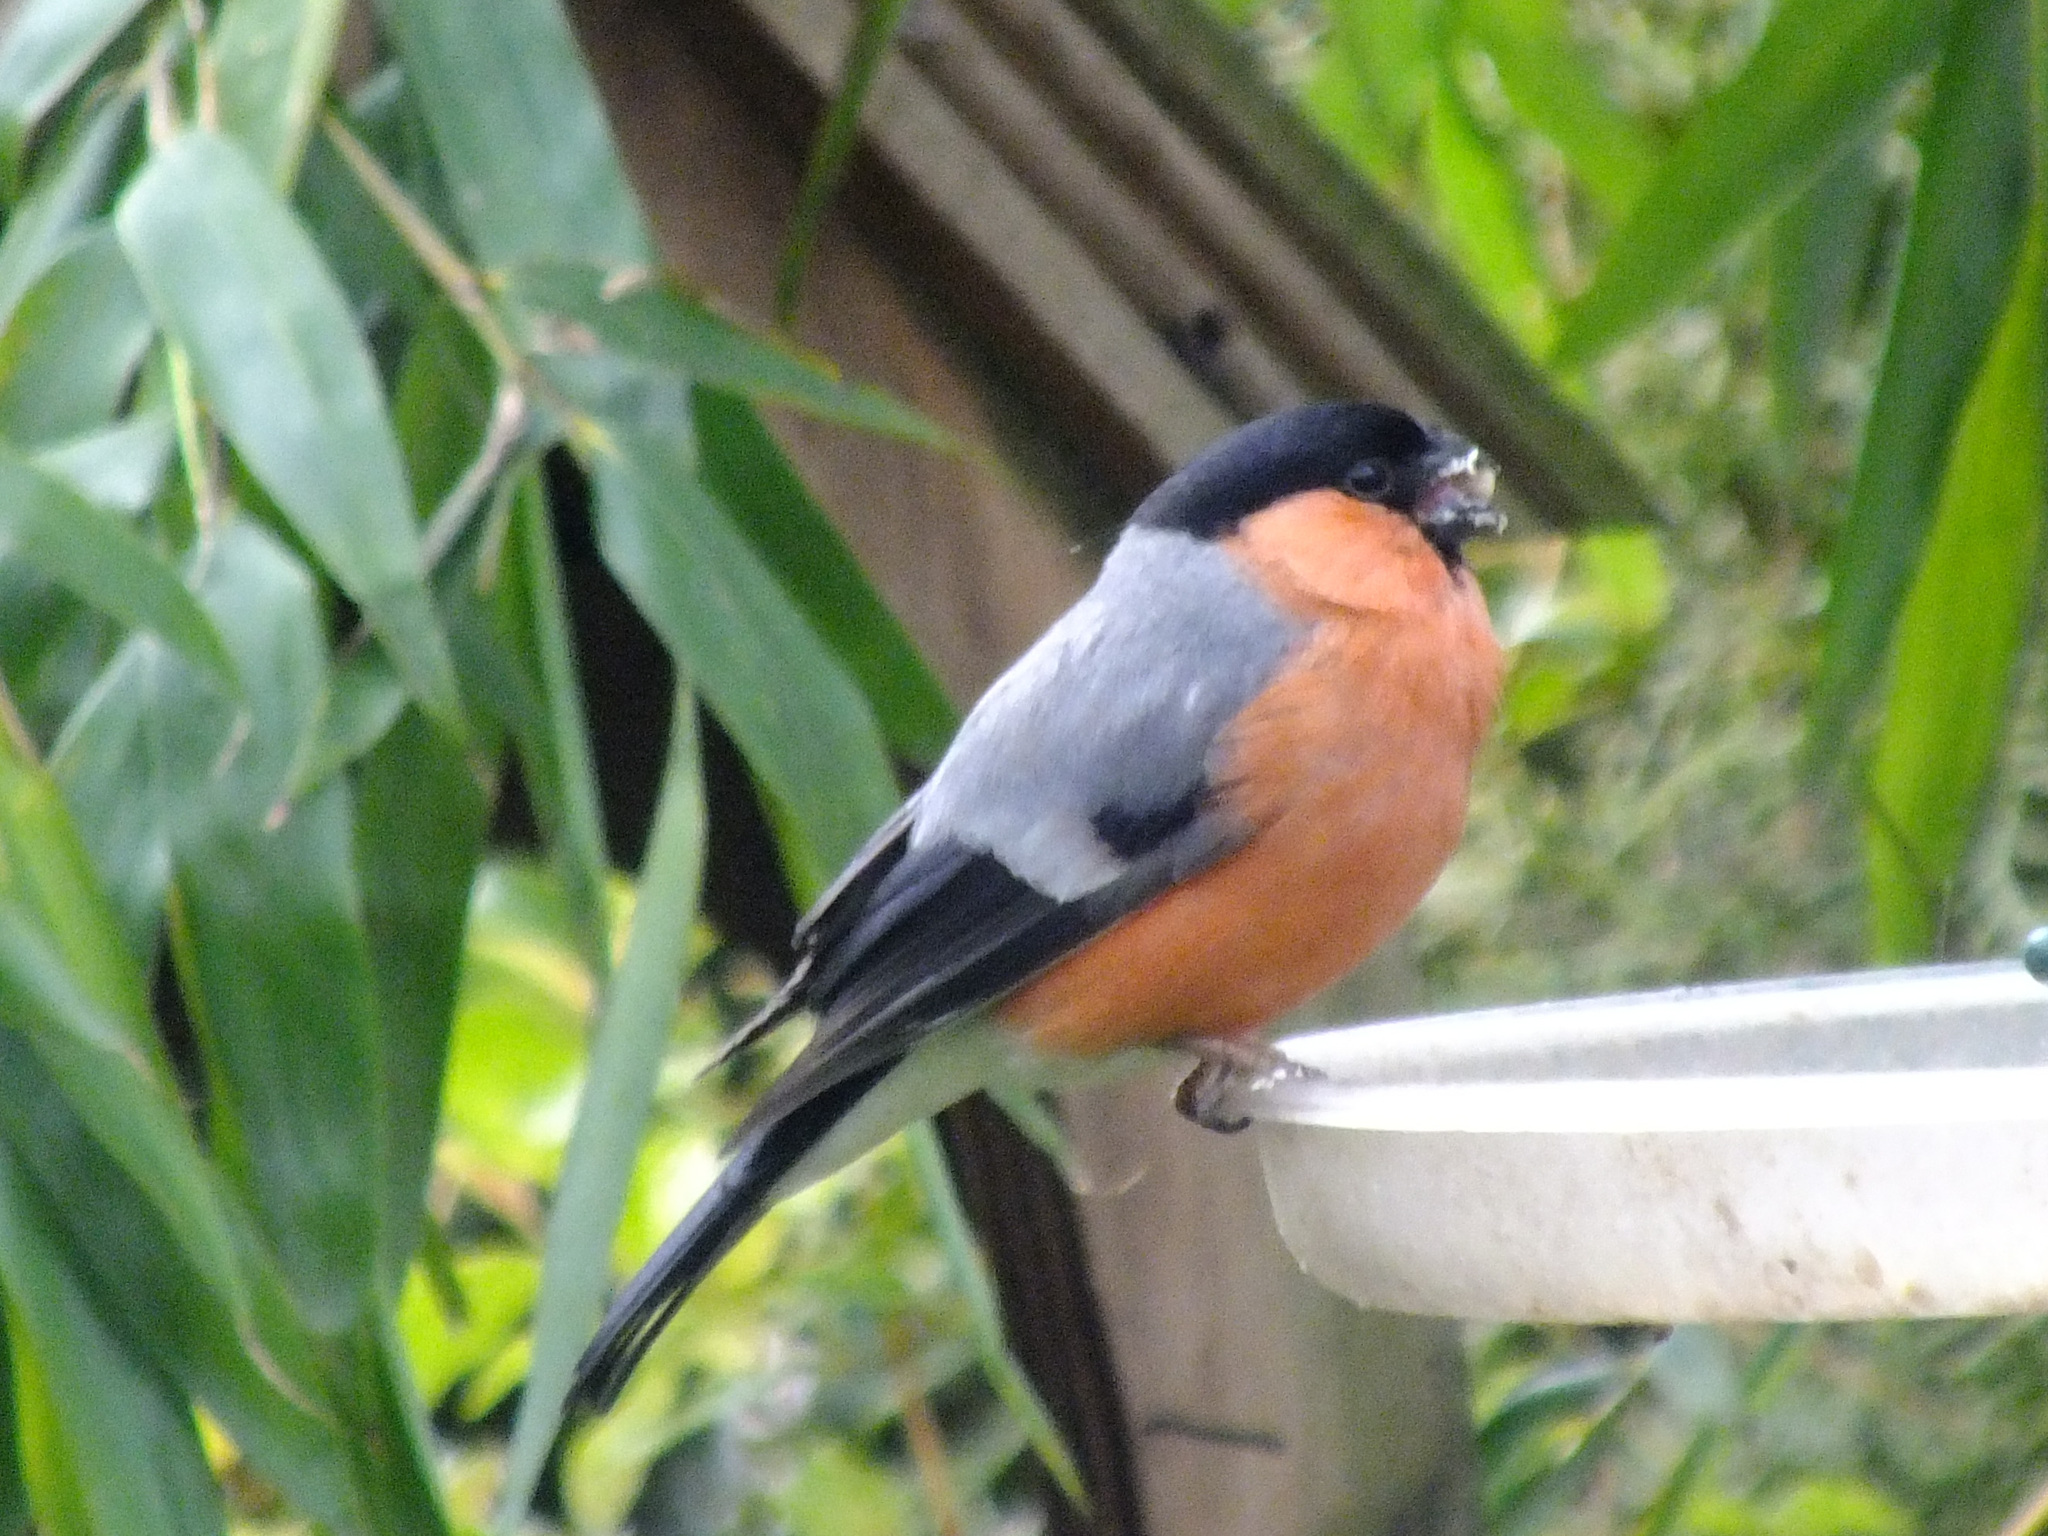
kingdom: Animalia
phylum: Chordata
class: Aves
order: Passeriformes
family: Fringillidae
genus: Pyrrhula
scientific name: Pyrrhula pyrrhula
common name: Eurasian bullfinch
